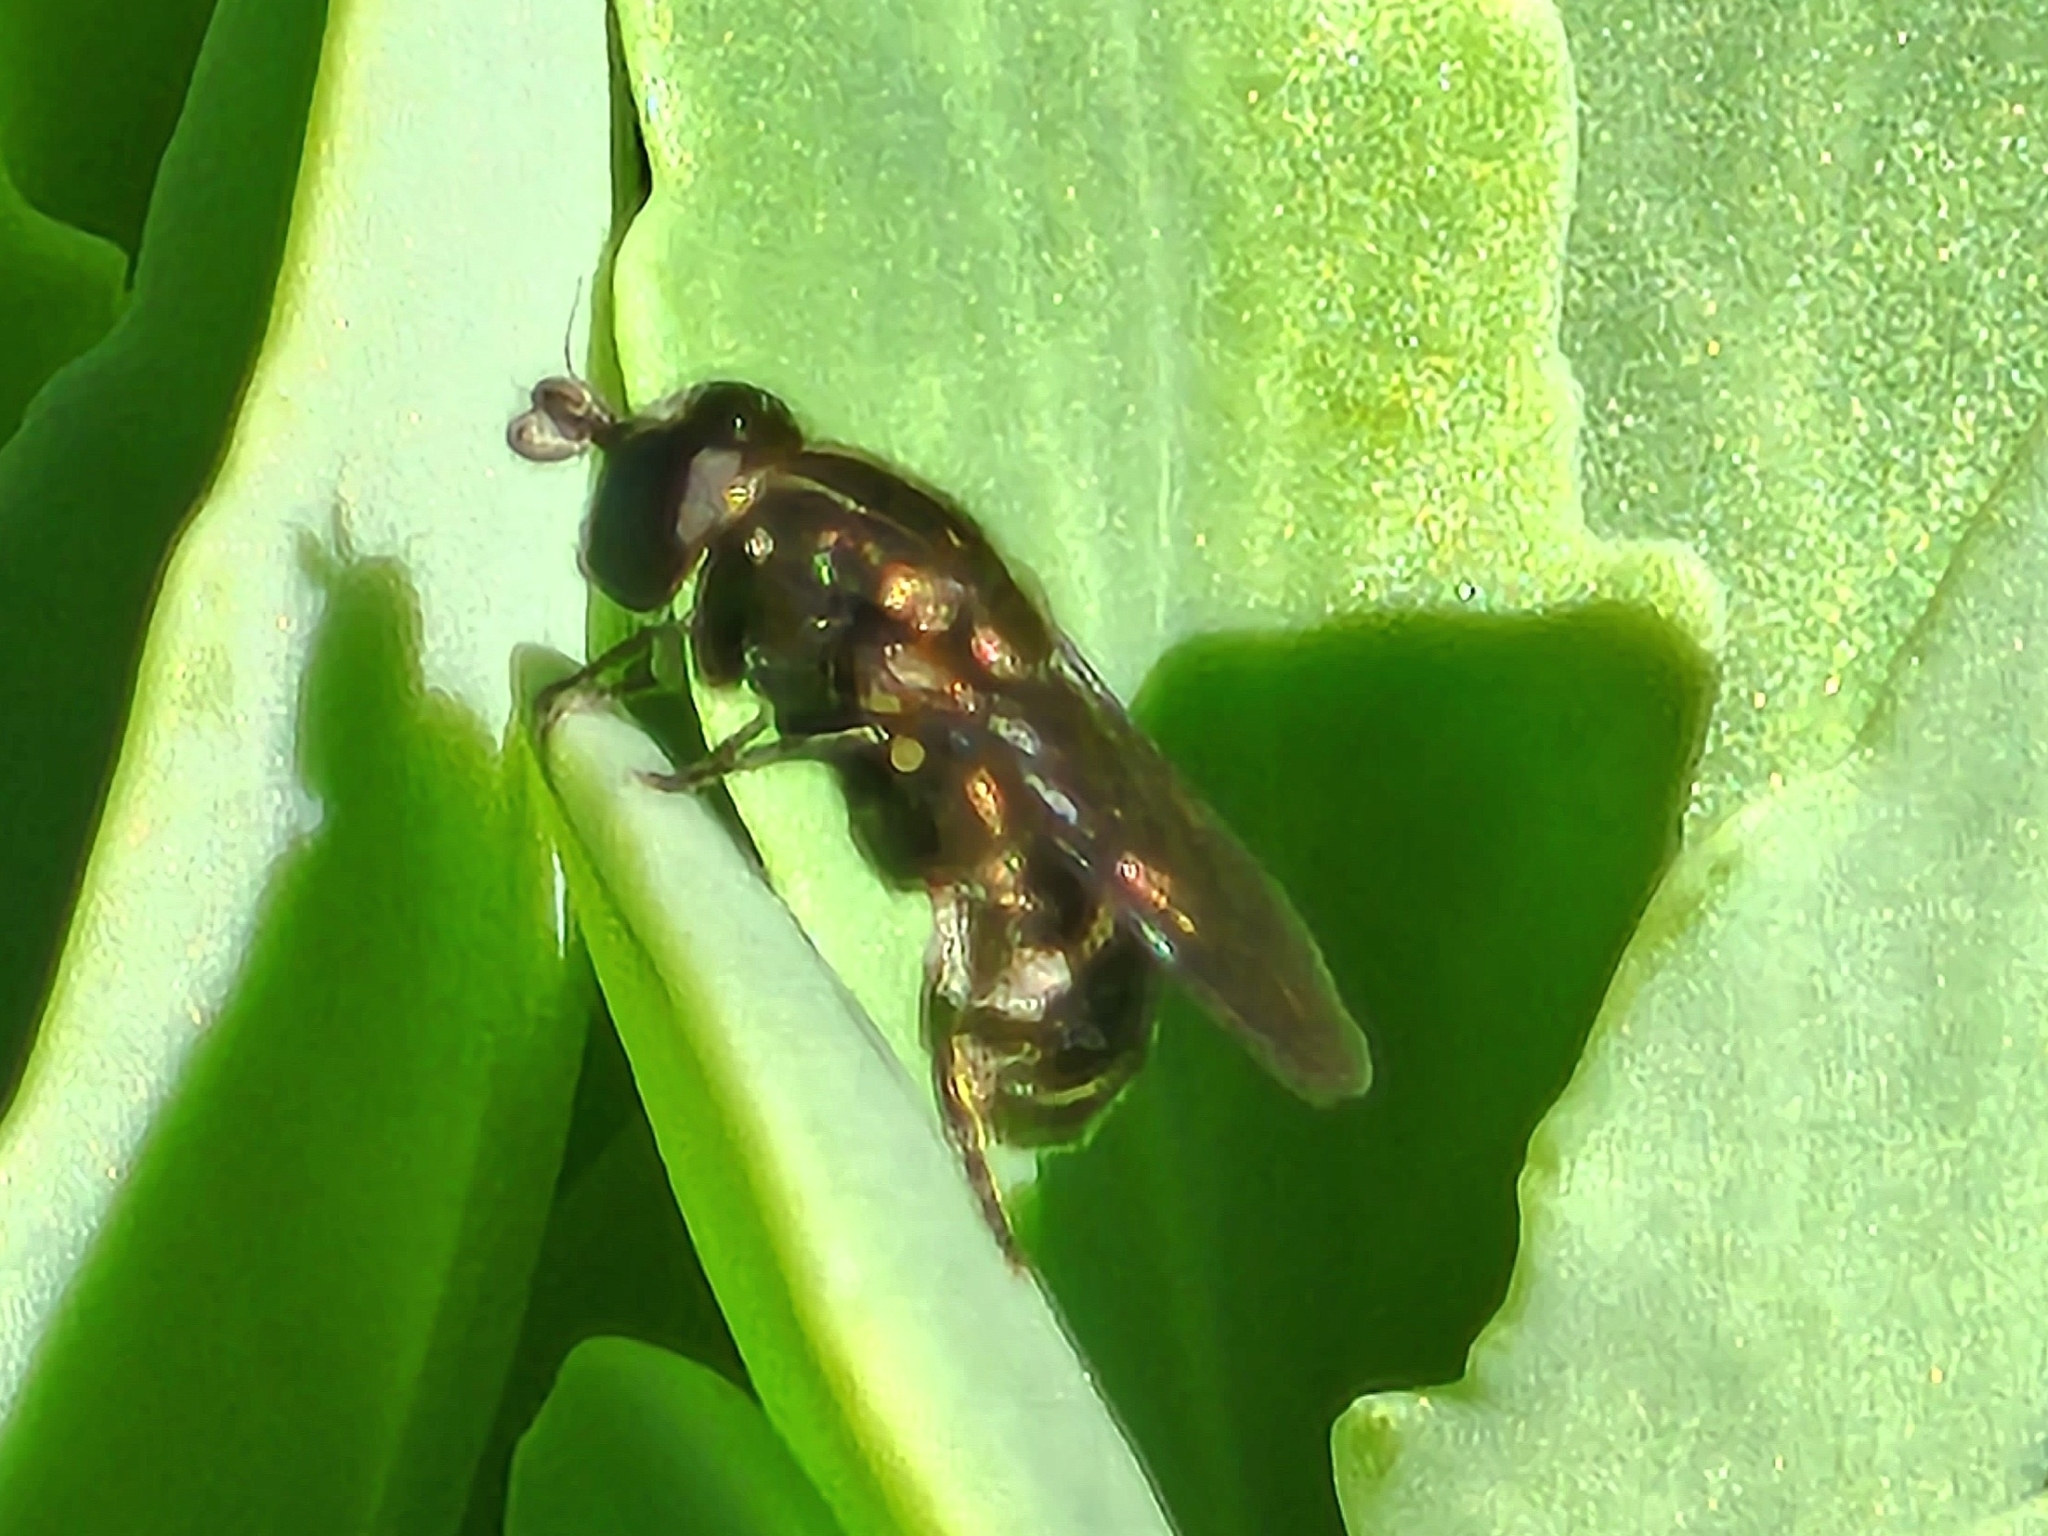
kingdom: Animalia
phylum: Arthropoda
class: Insecta
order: Diptera
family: Syrphidae
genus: Eumerus
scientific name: Eumerus
